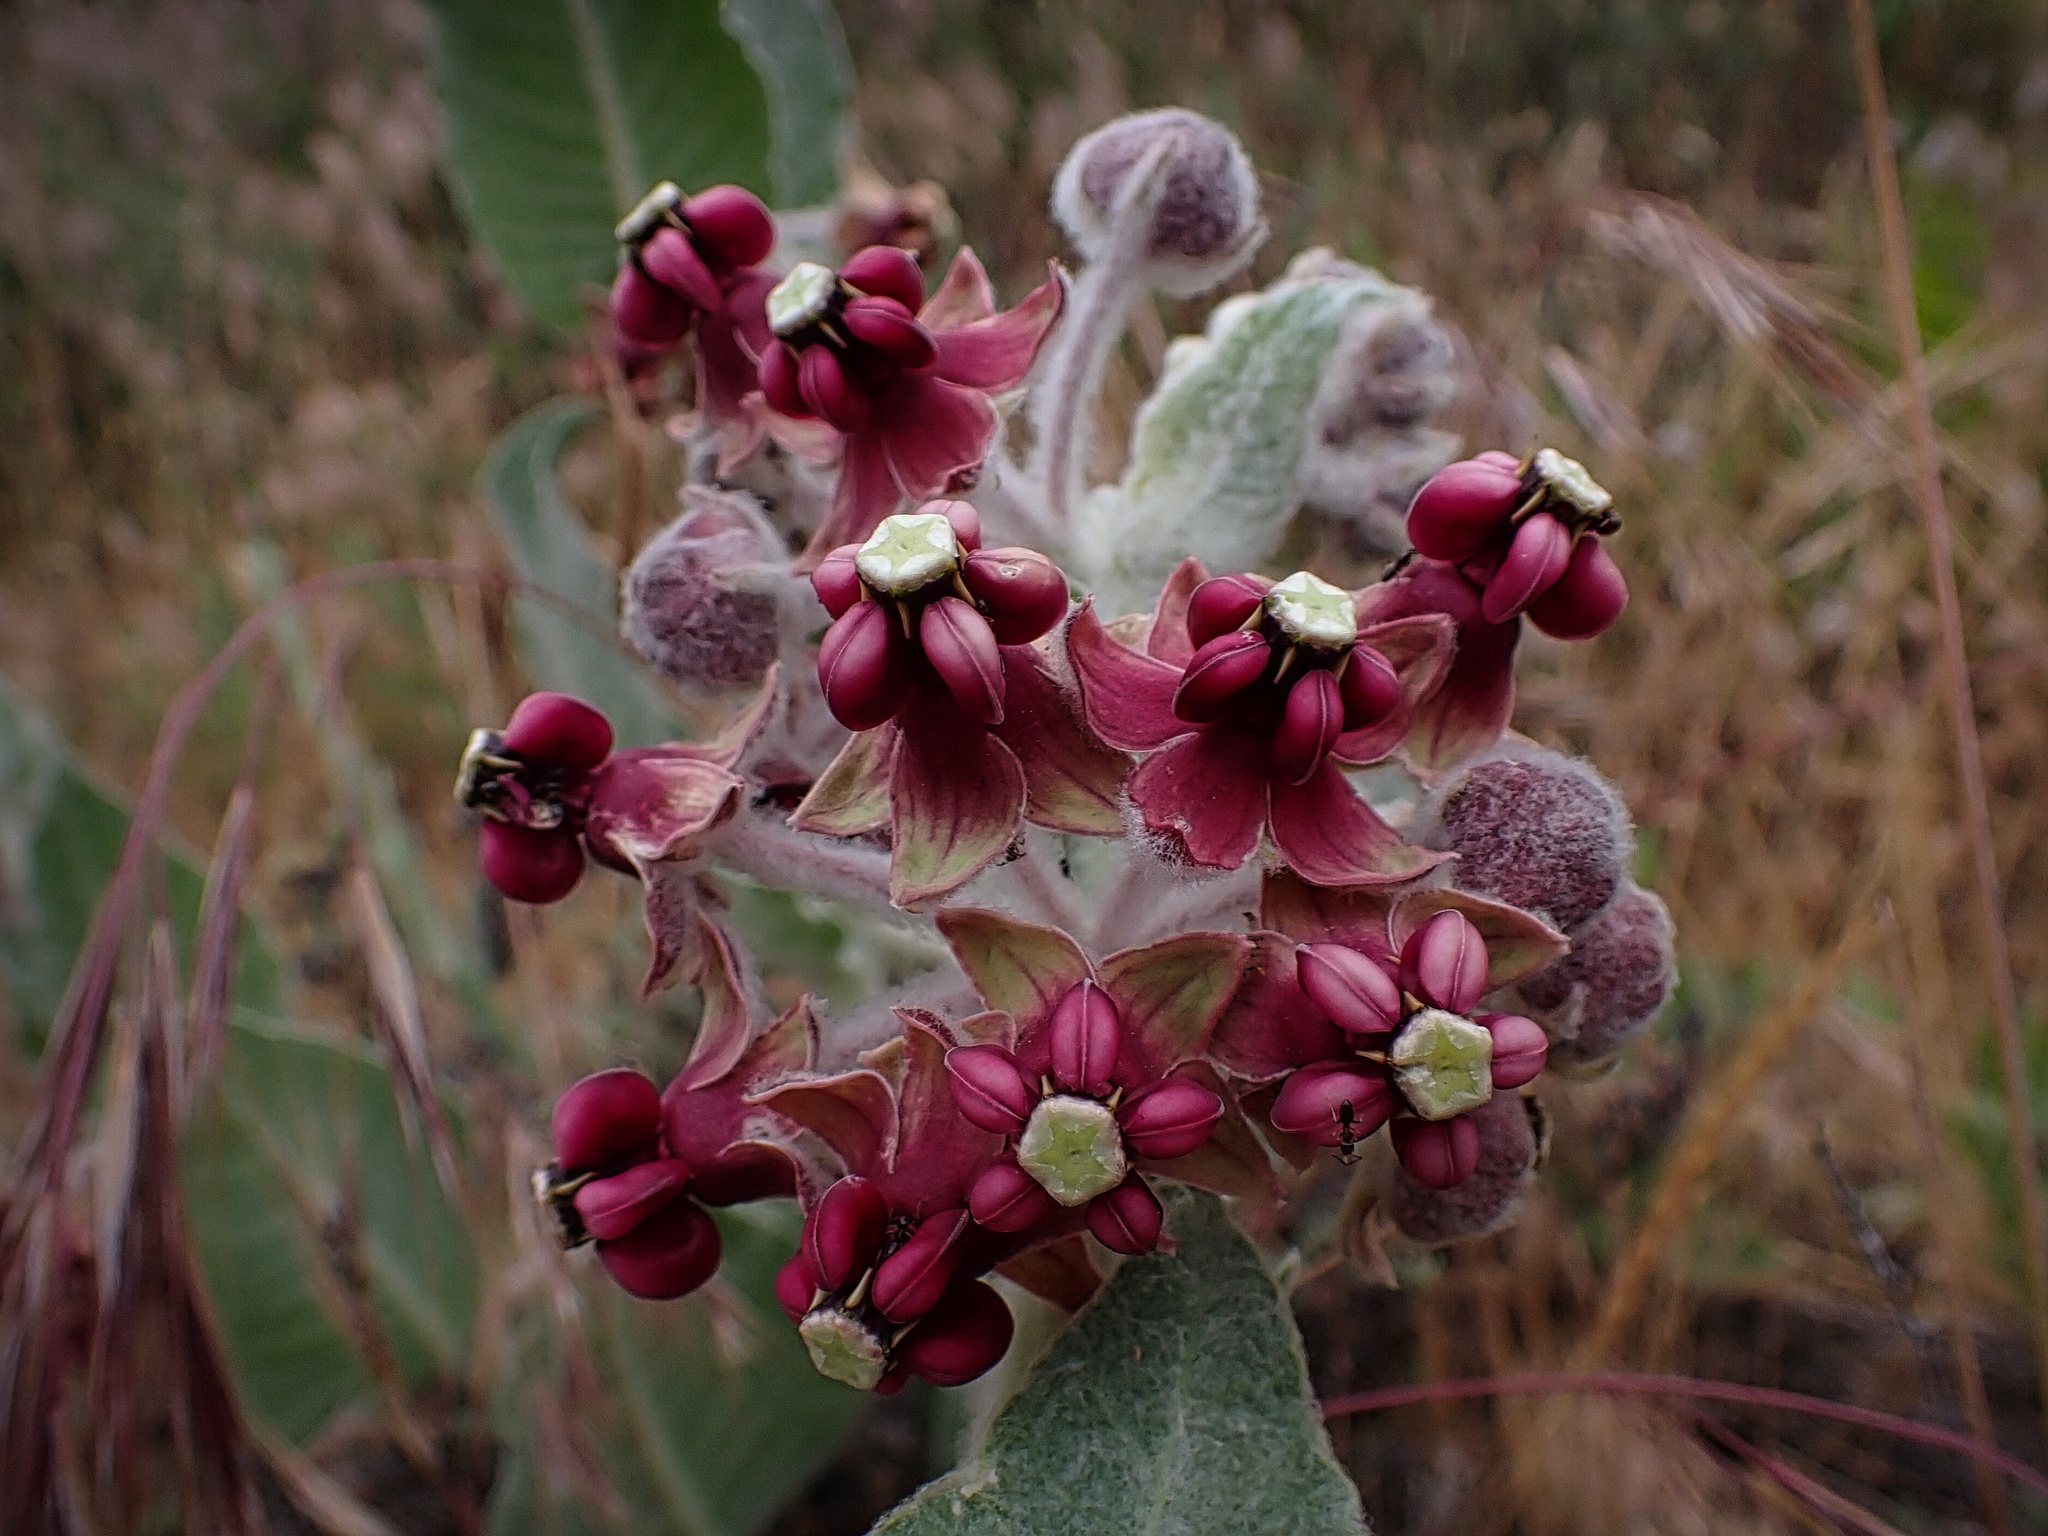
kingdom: Plantae
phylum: Tracheophyta
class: Magnoliopsida
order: Gentianales
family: Apocynaceae
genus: Asclepias
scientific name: Asclepias californica
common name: California milkweed
